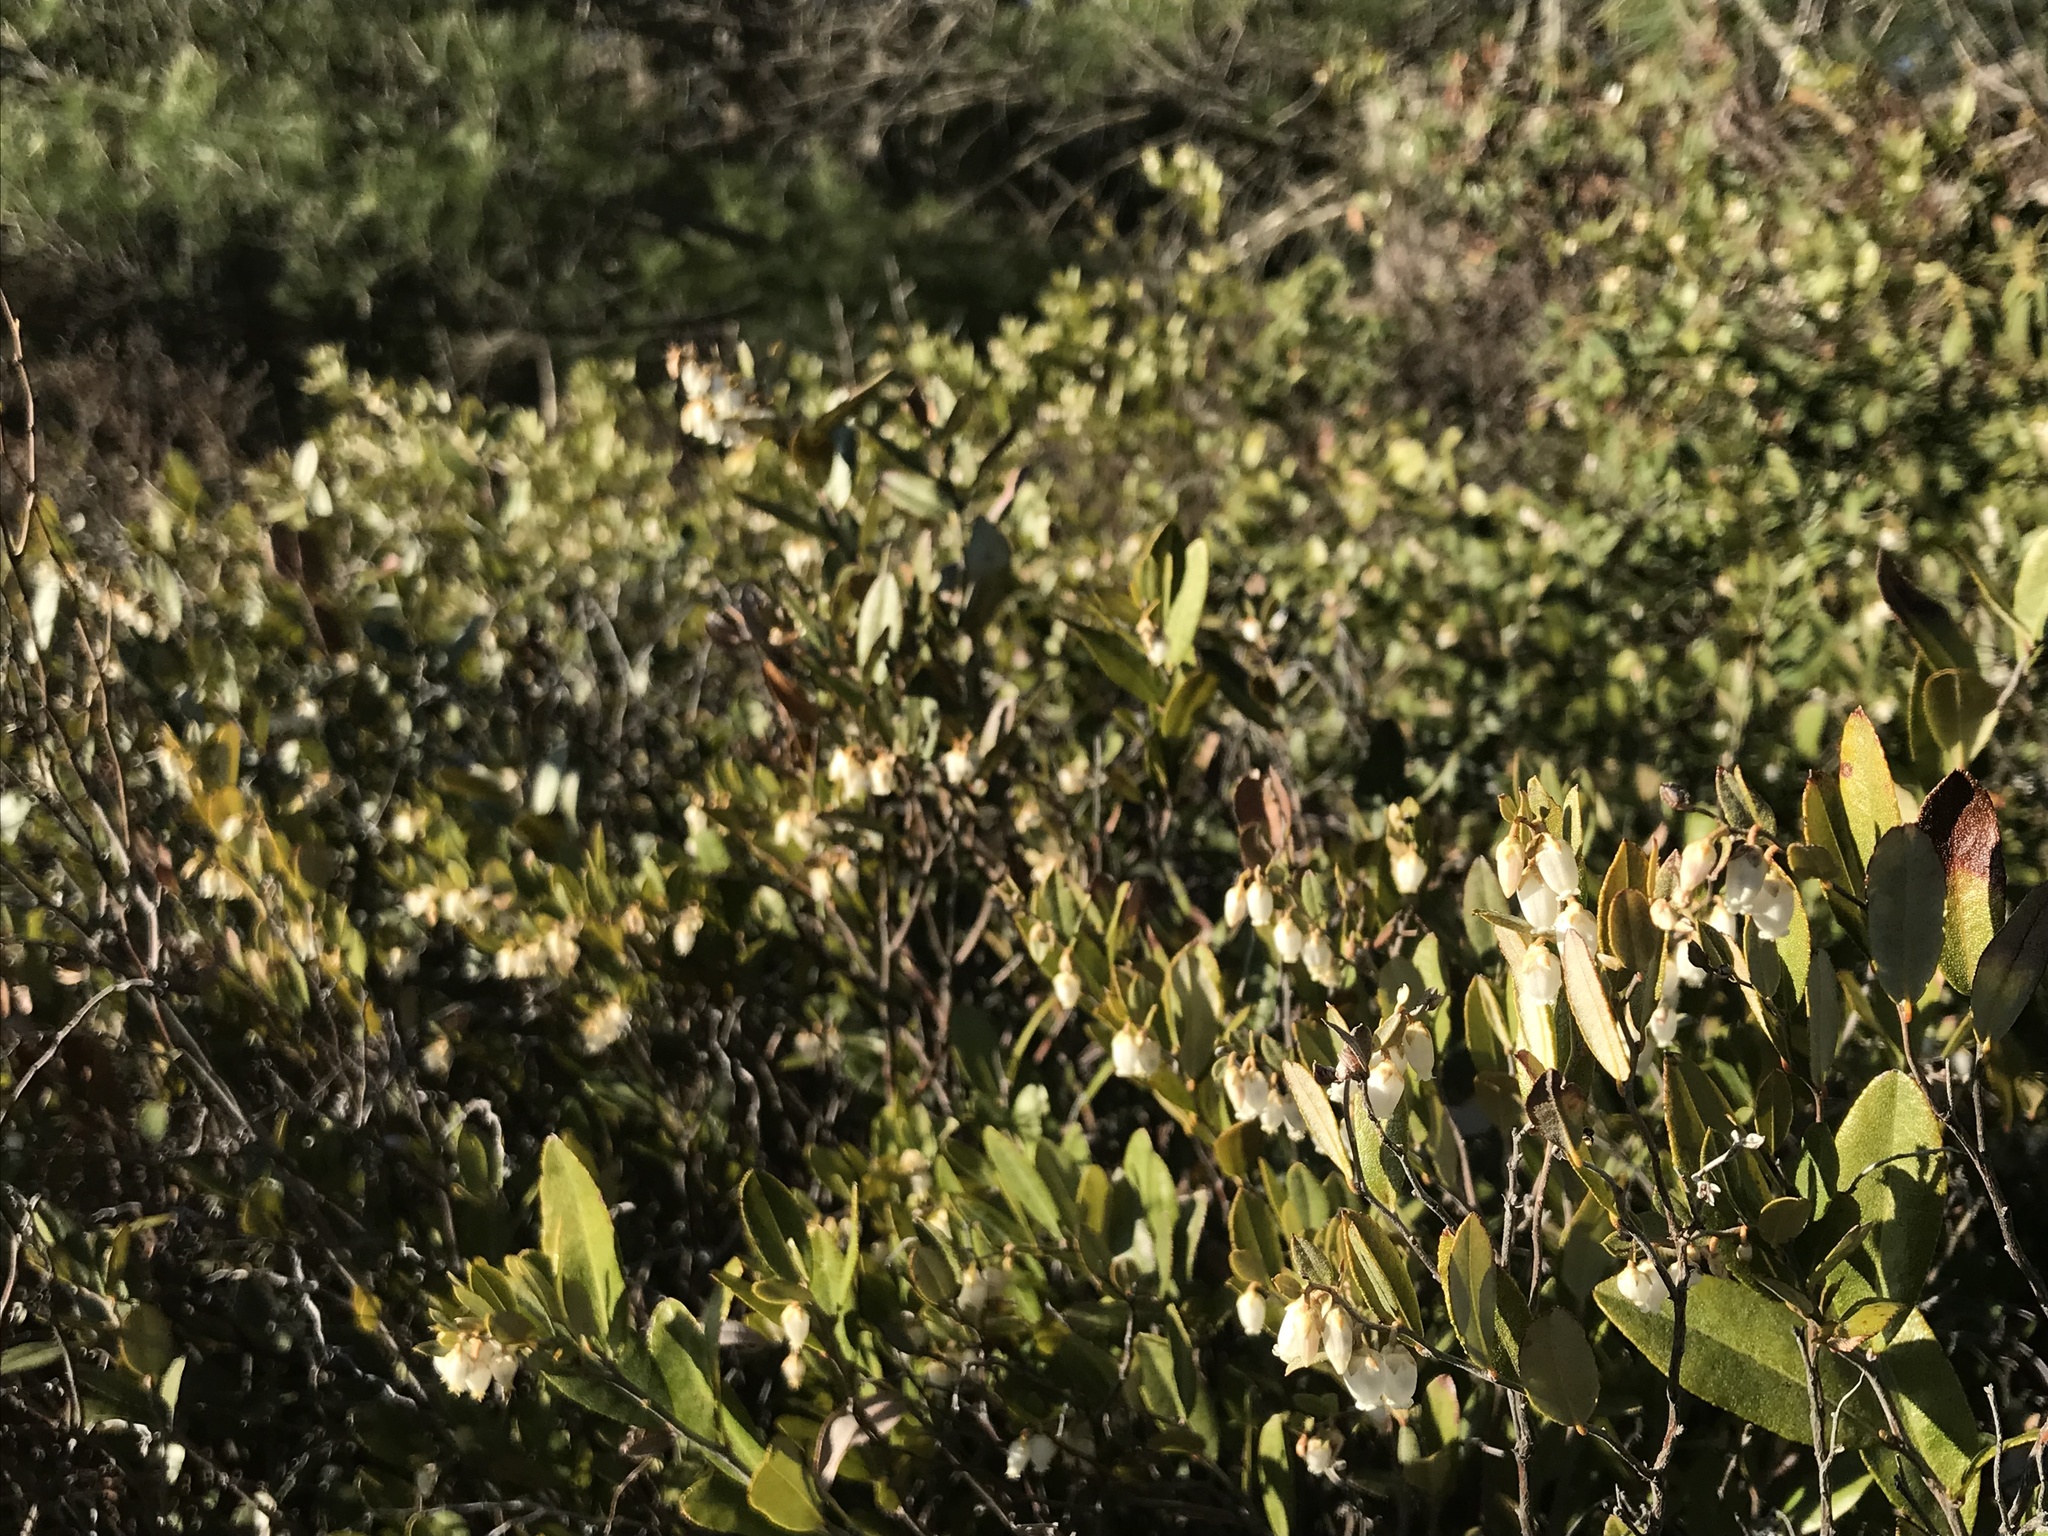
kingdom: Plantae
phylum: Tracheophyta
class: Magnoliopsida
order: Ericales
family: Ericaceae
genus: Chamaedaphne
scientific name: Chamaedaphne calyculata
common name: Leatherleaf
